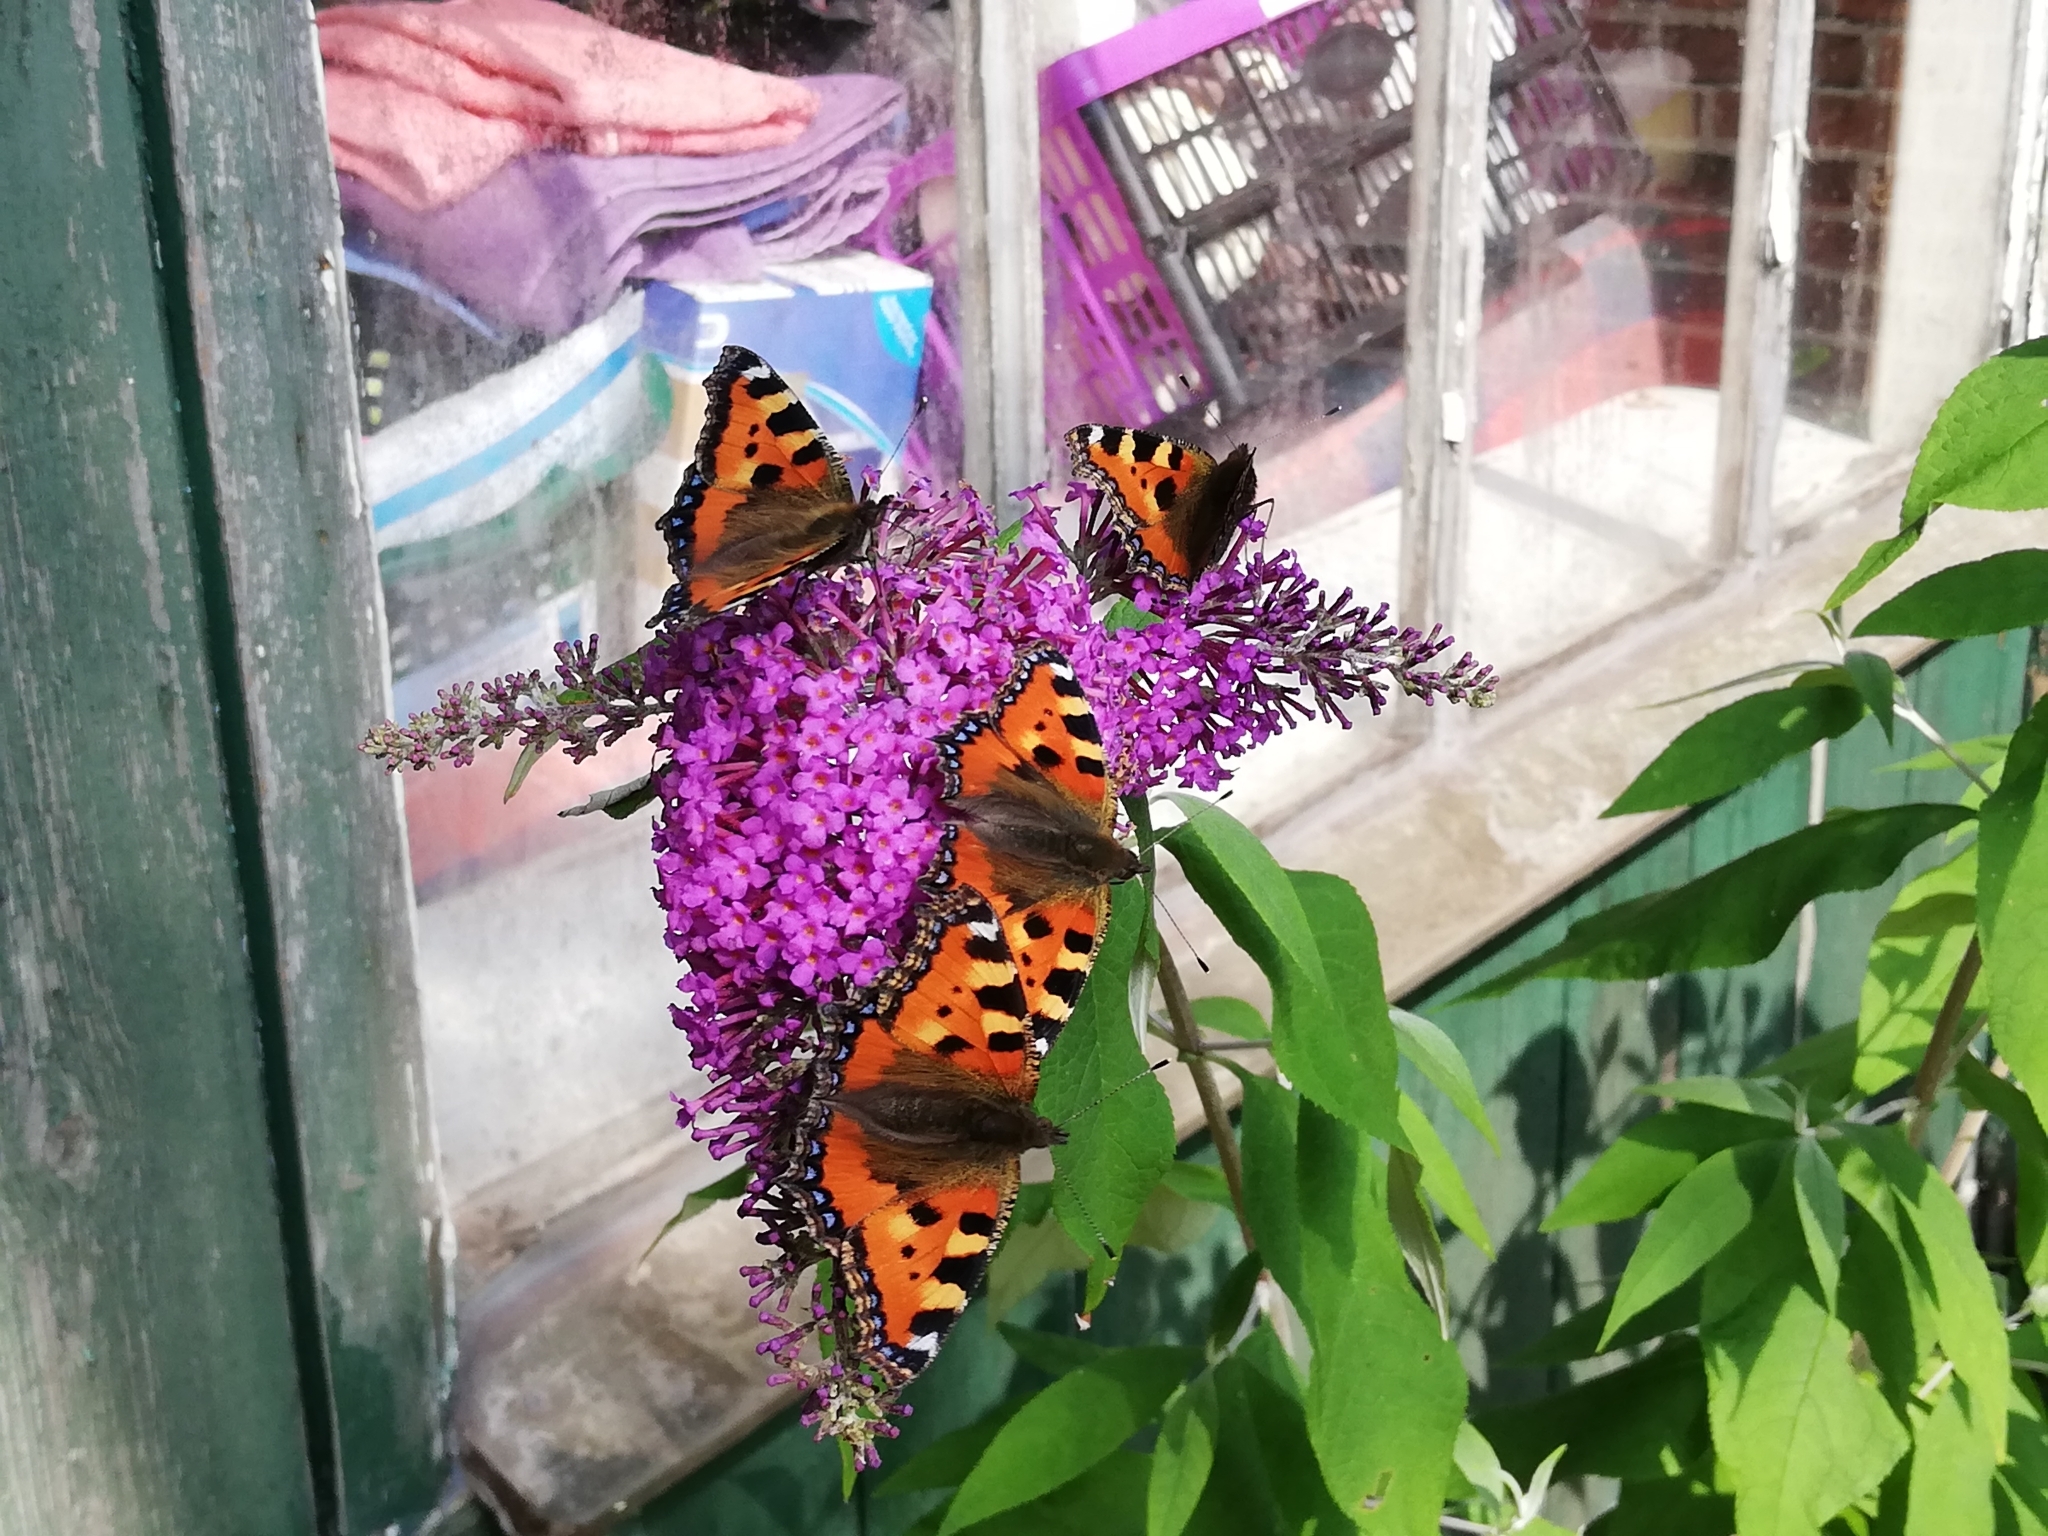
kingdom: Animalia
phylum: Arthropoda
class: Insecta
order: Lepidoptera
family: Nymphalidae
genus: Aglais
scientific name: Aglais urticae
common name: Small tortoiseshell
